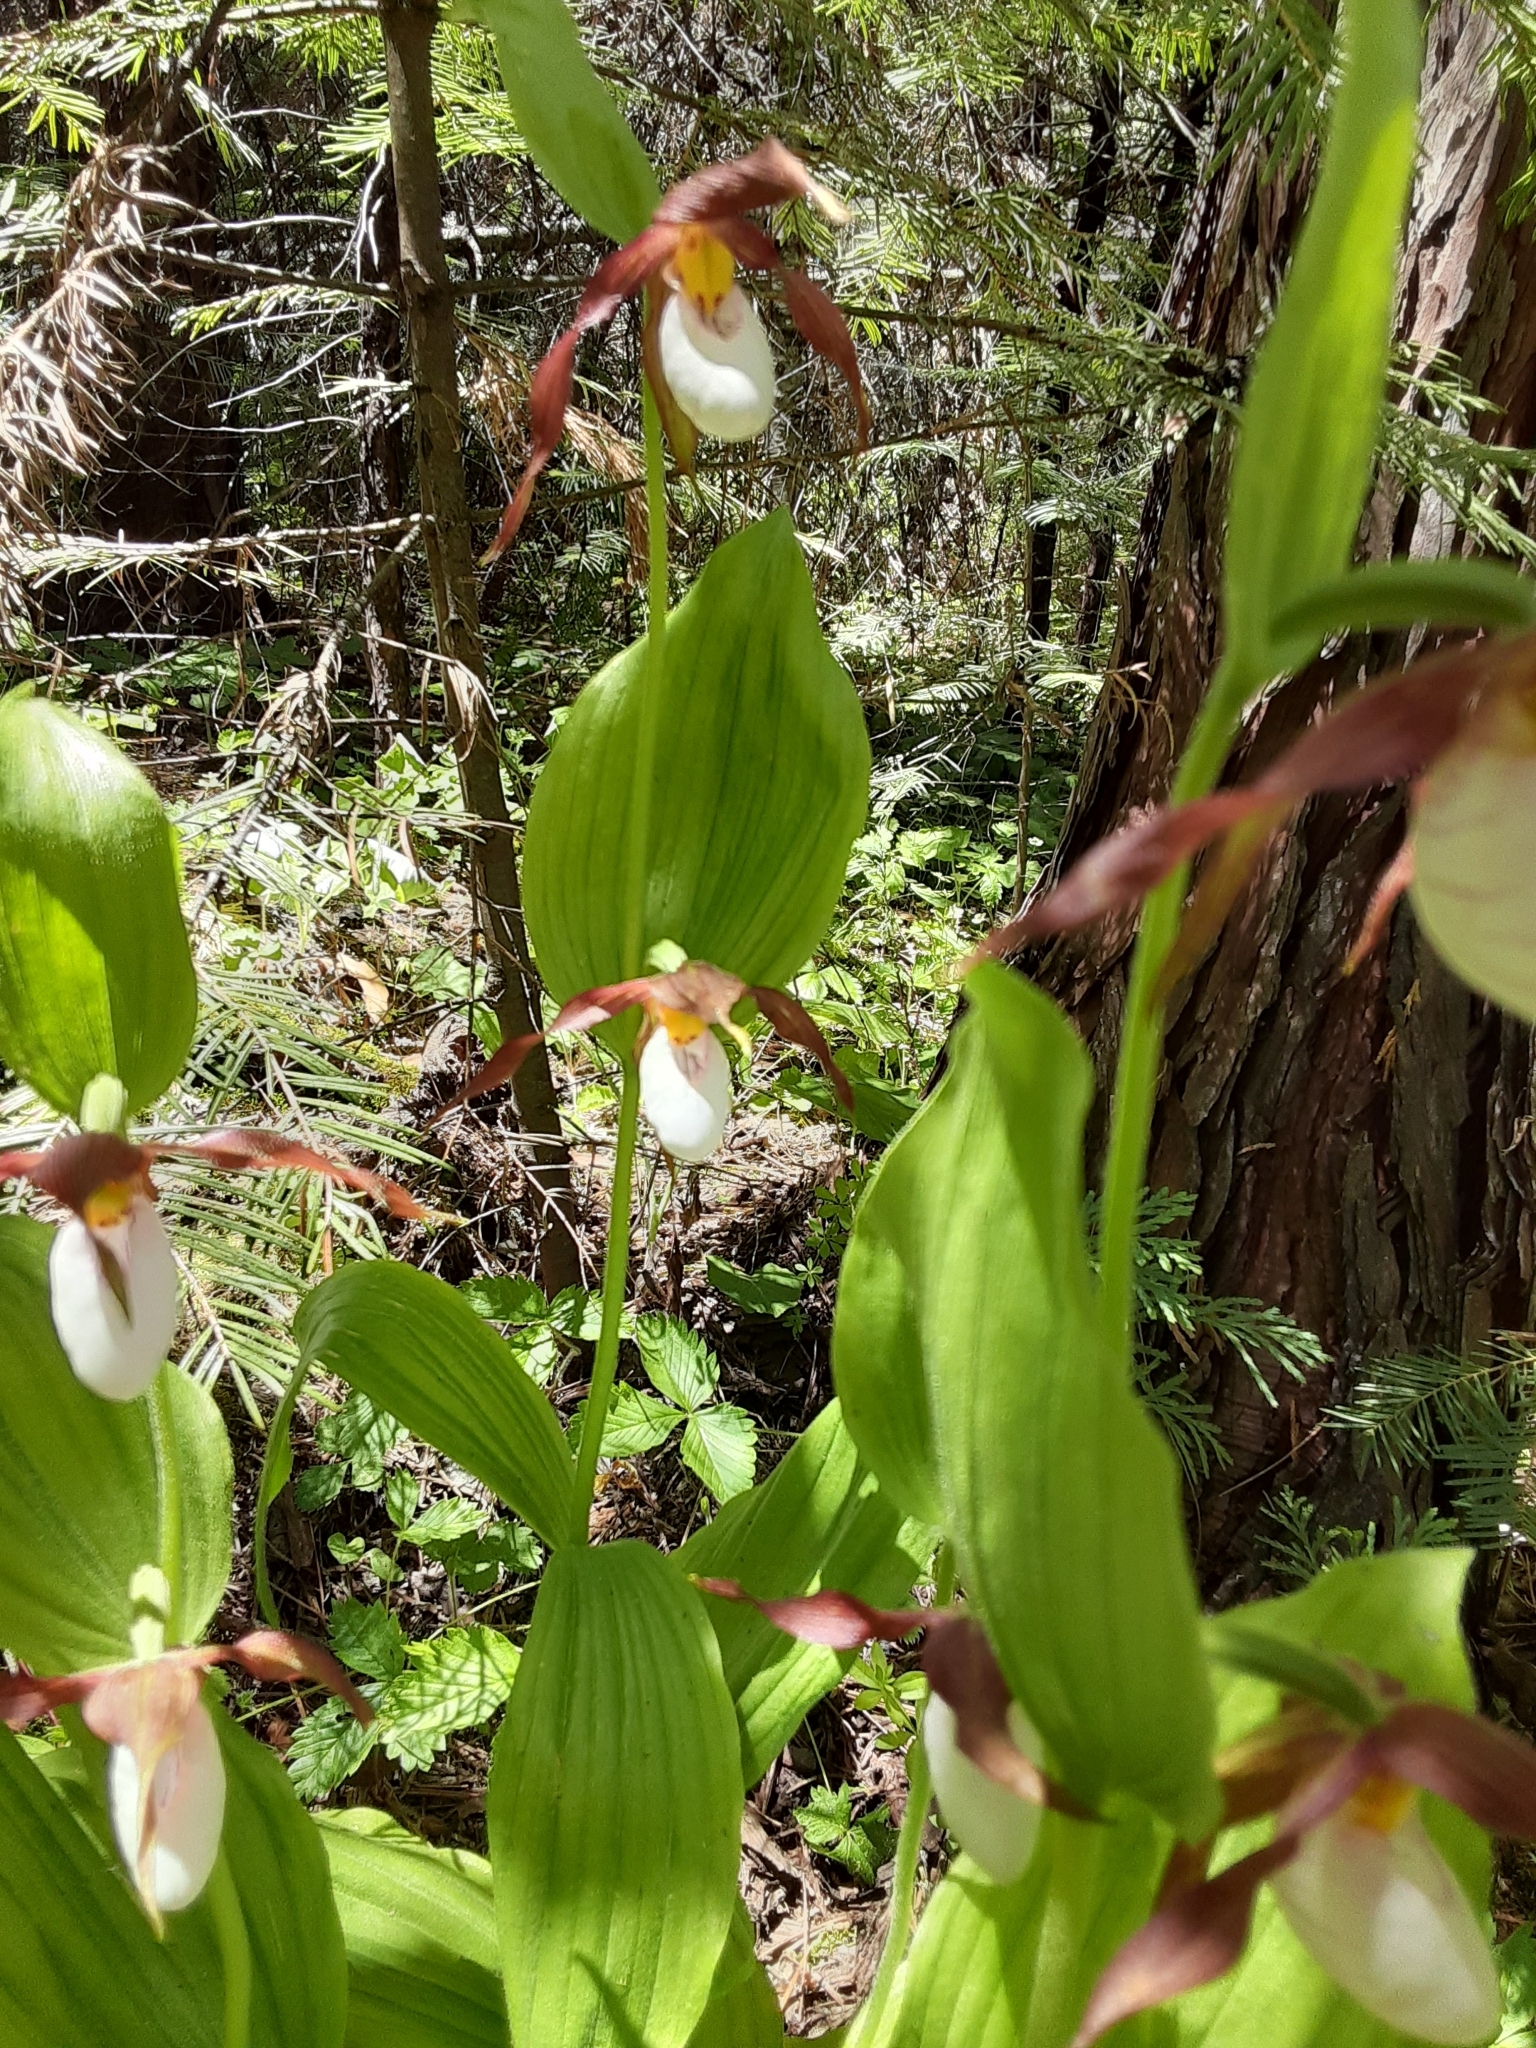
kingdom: Plantae
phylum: Tracheophyta
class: Liliopsida
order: Asparagales
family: Orchidaceae
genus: Cypripedium
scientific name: Cypripedium montanum
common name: Mountain lady's-slipper
